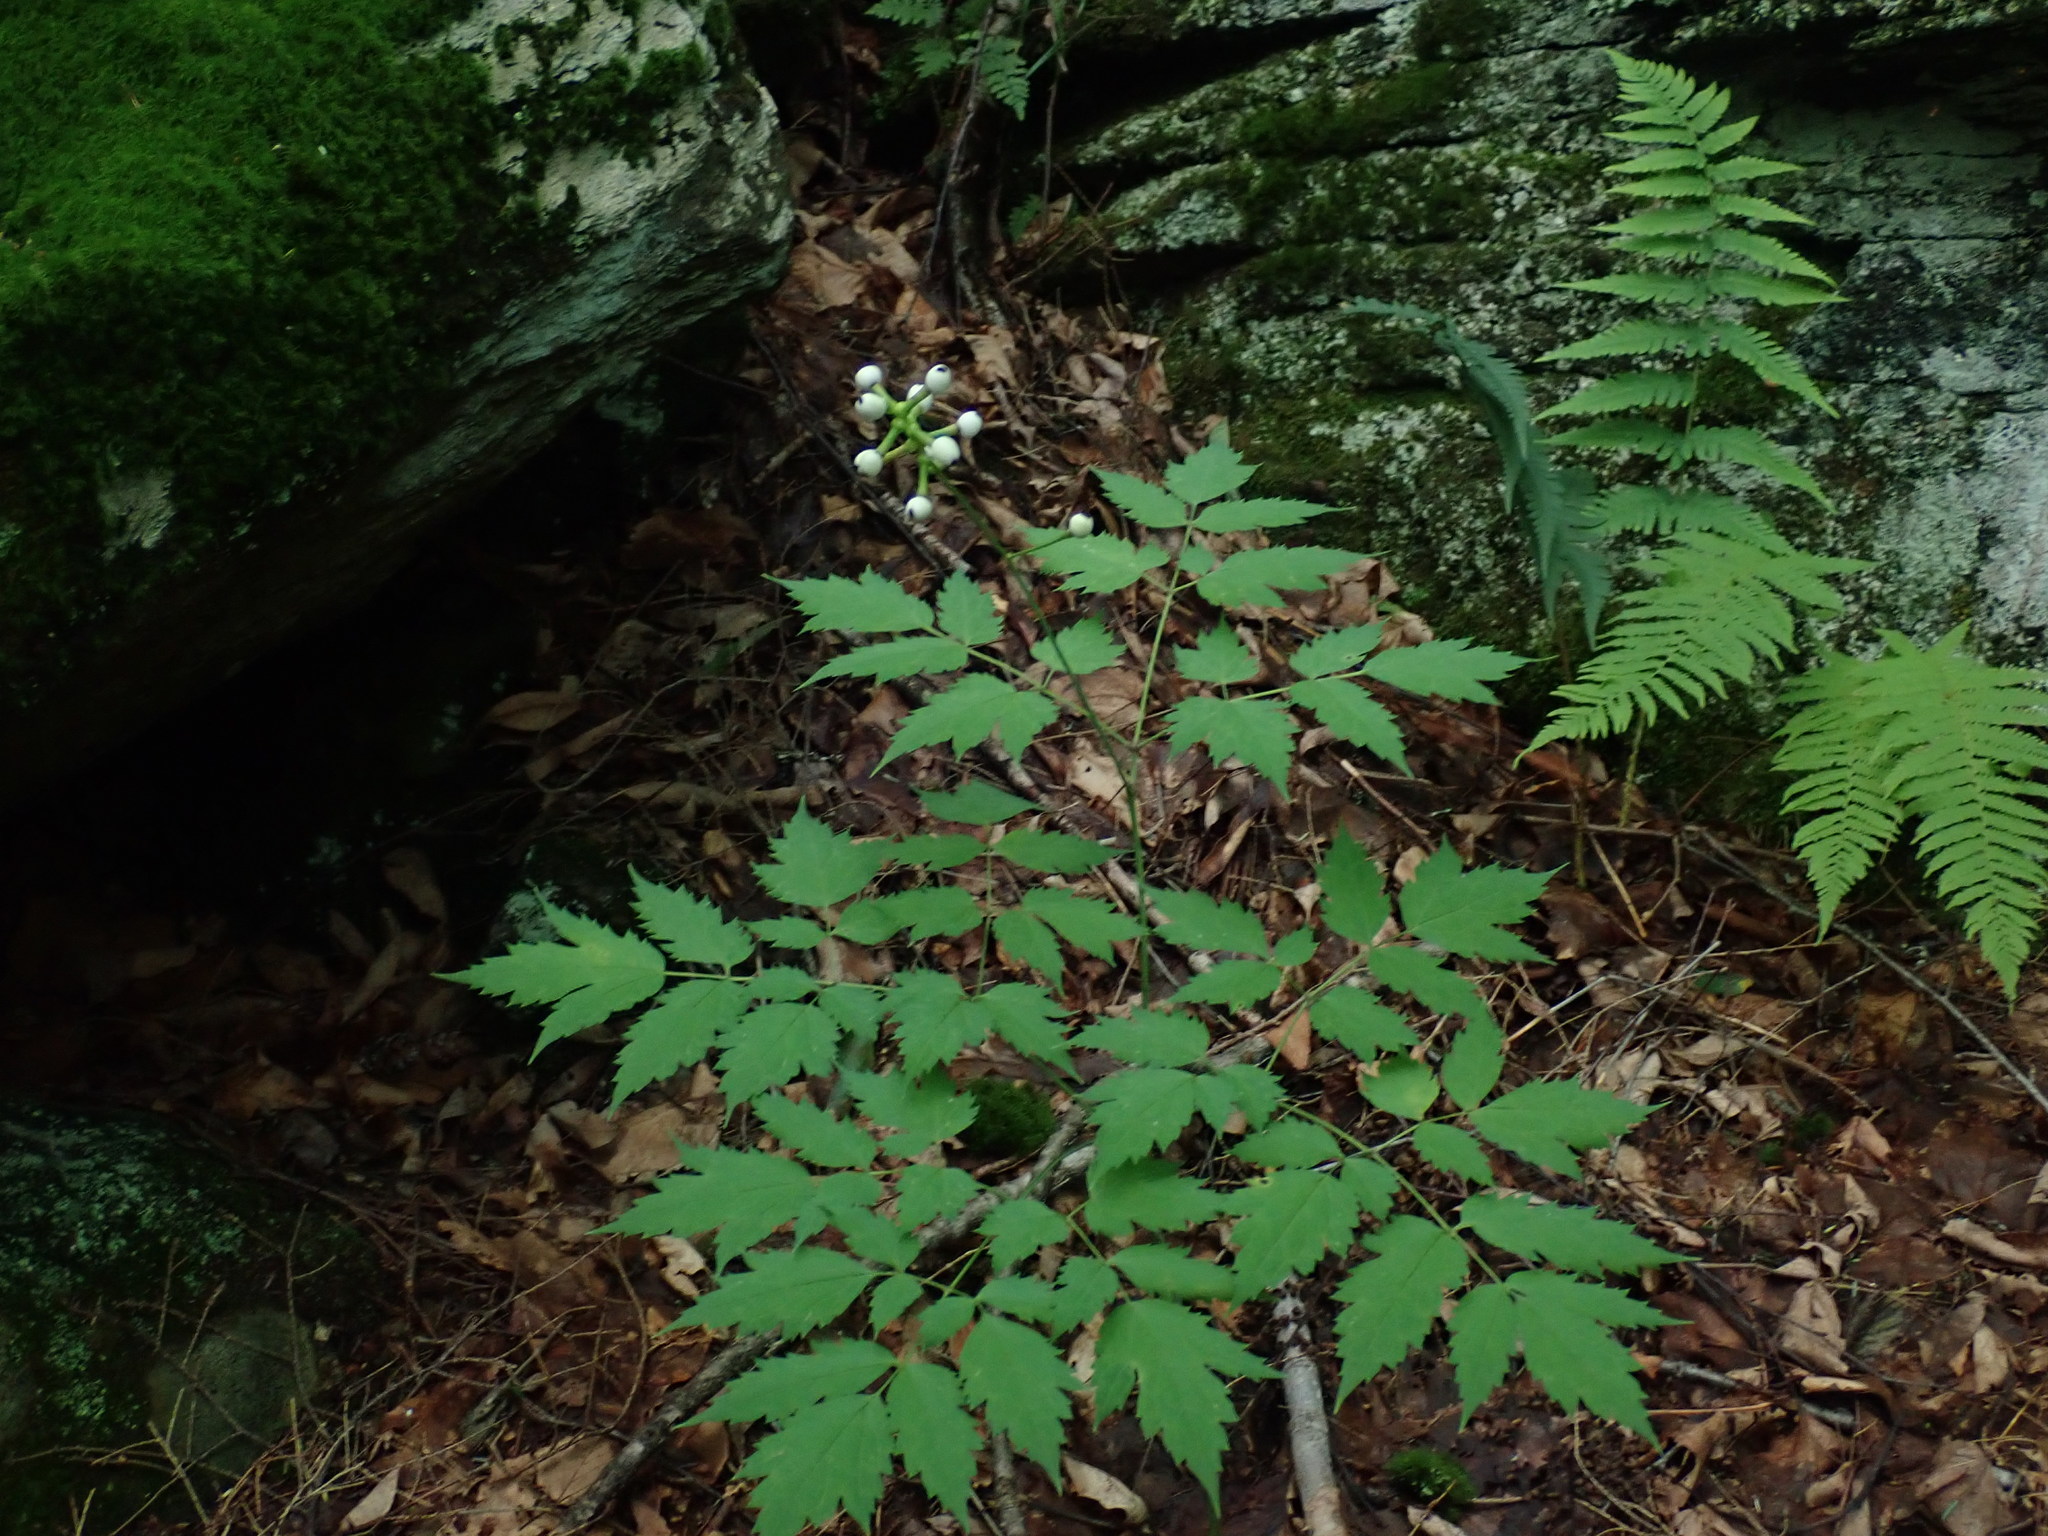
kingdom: Plantae
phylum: Tracheophyta
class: Magnoliopsida
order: Ranunculales
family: Ranunculaceae
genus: Actaea
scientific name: Actaea pachypoda
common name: Doll's-eyes
